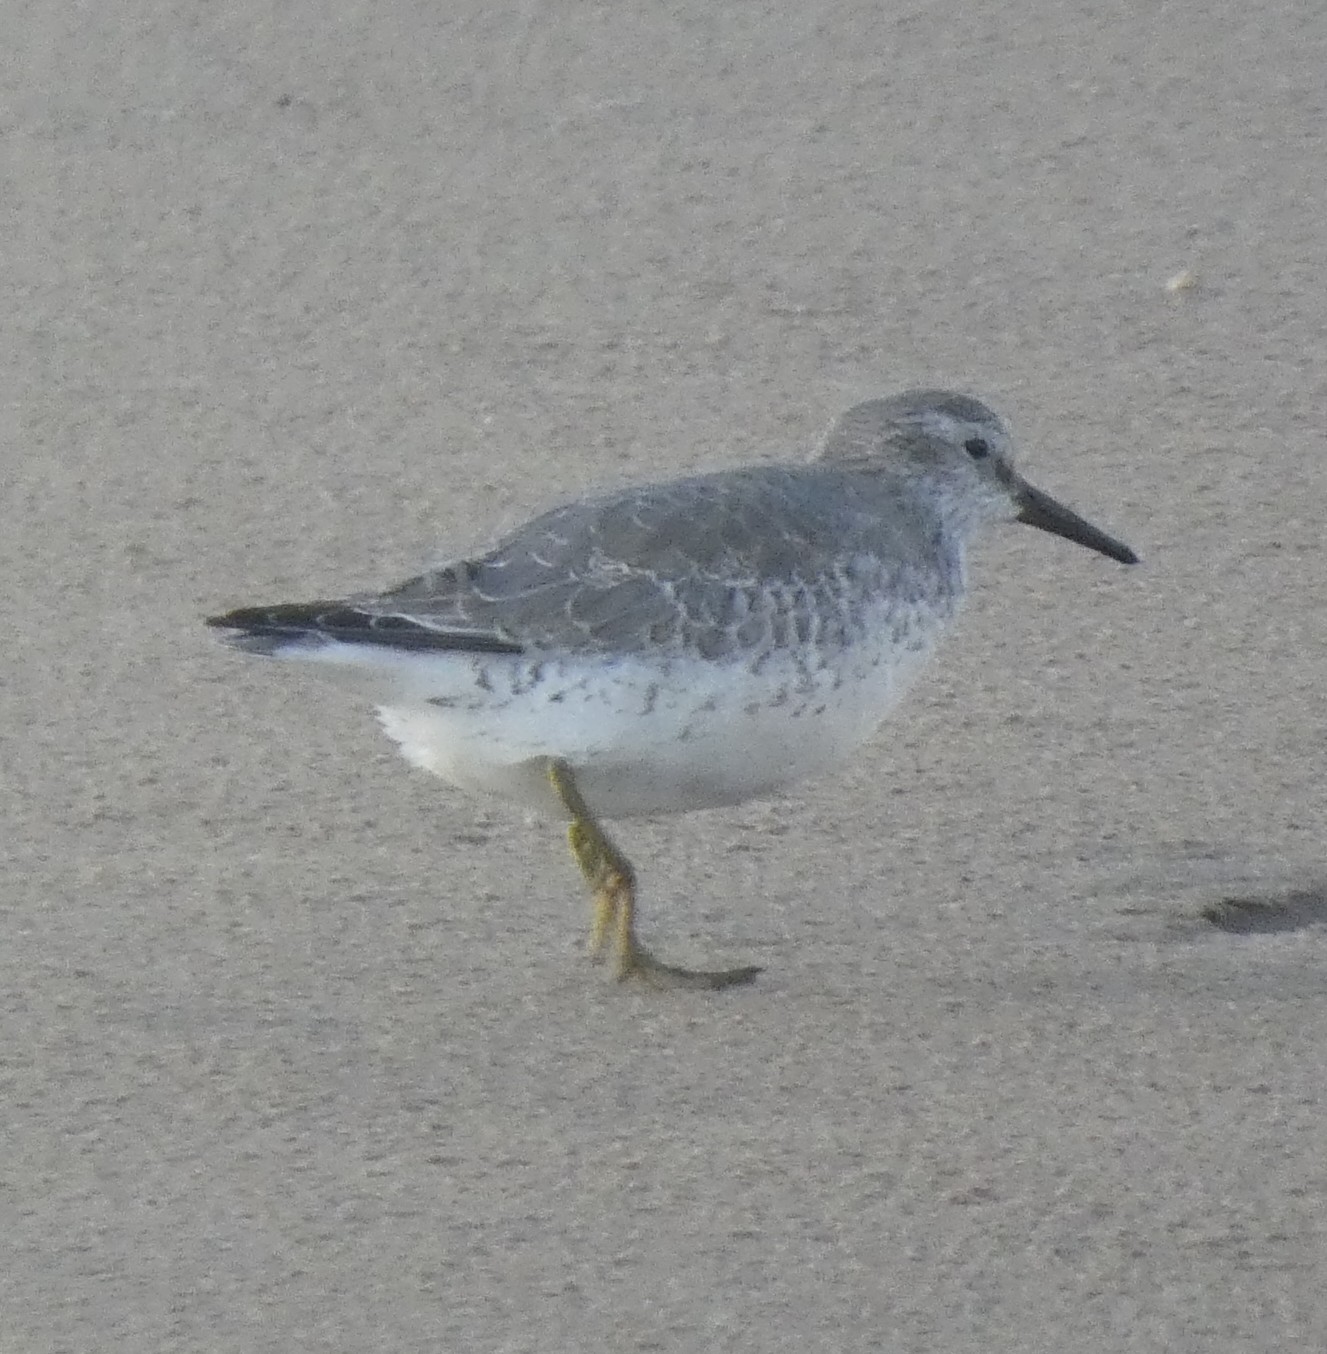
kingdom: Animalia
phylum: Chordata
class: Aves
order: Charadriiformes
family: Scolopacidae
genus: Calidris
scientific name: Calidris canutus
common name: Red knot
